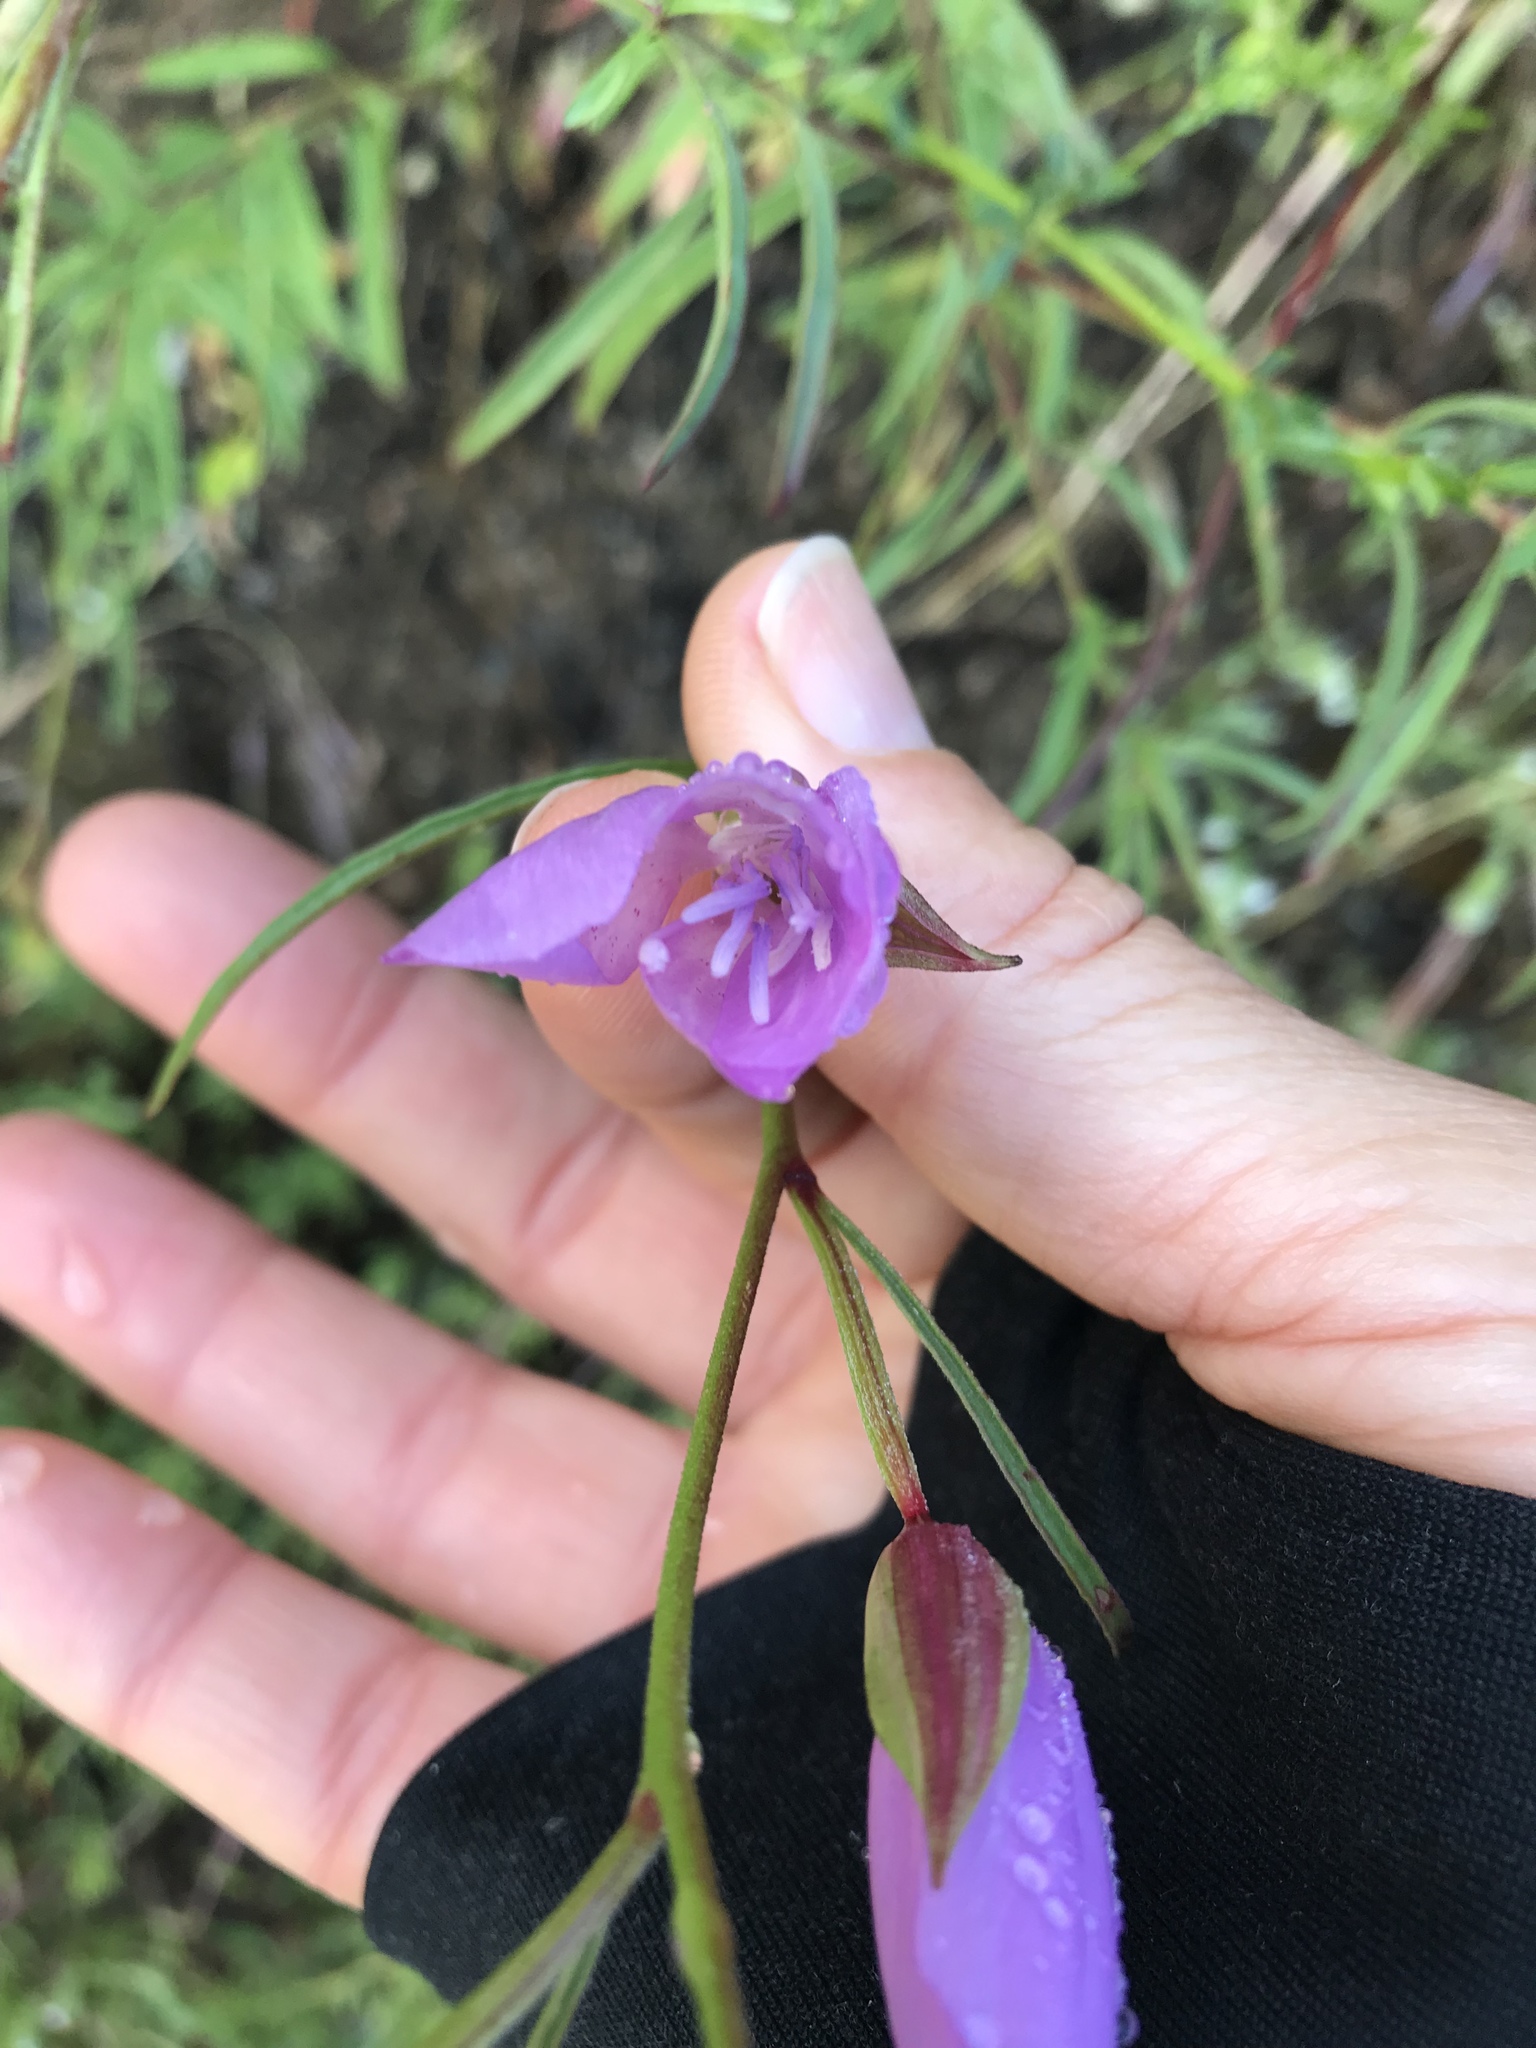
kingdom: Plantae
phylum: Tracheophyta
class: Magnoliopsida
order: Myrtales
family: Onagraceae
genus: Clarkia
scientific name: Clarkia dudleyana
